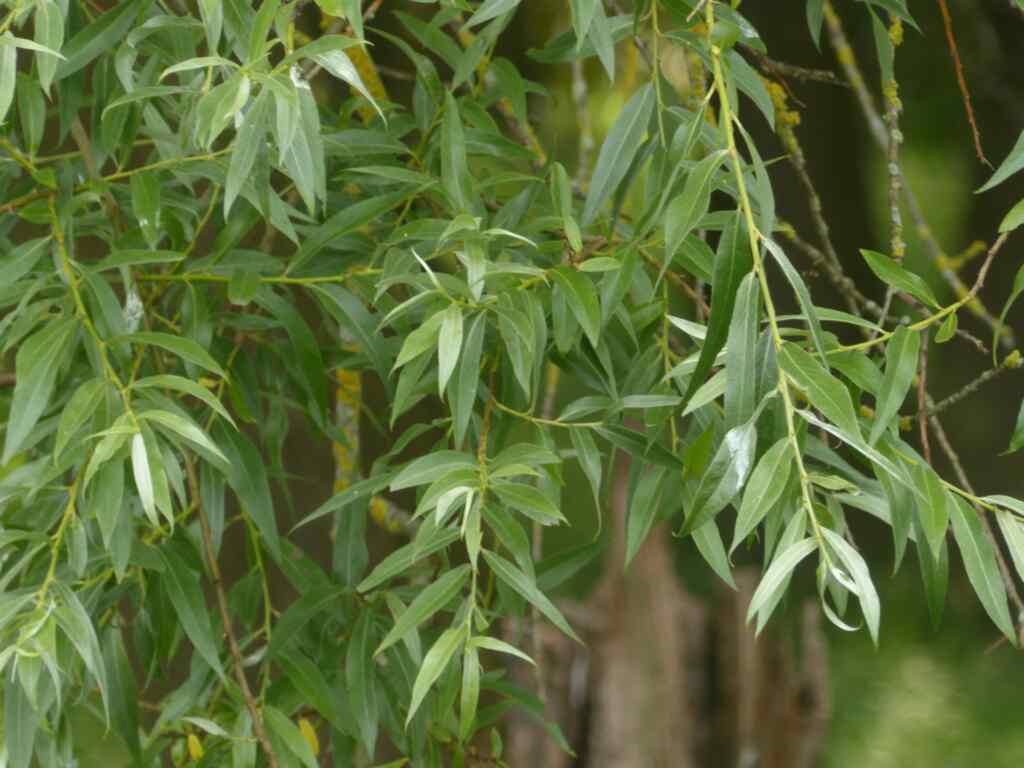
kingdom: Plantae
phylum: Tracheophyta
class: Magnoliopsida
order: Malpighiales
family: Salicaceae
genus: Salix
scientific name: Salix alba
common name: White willow
